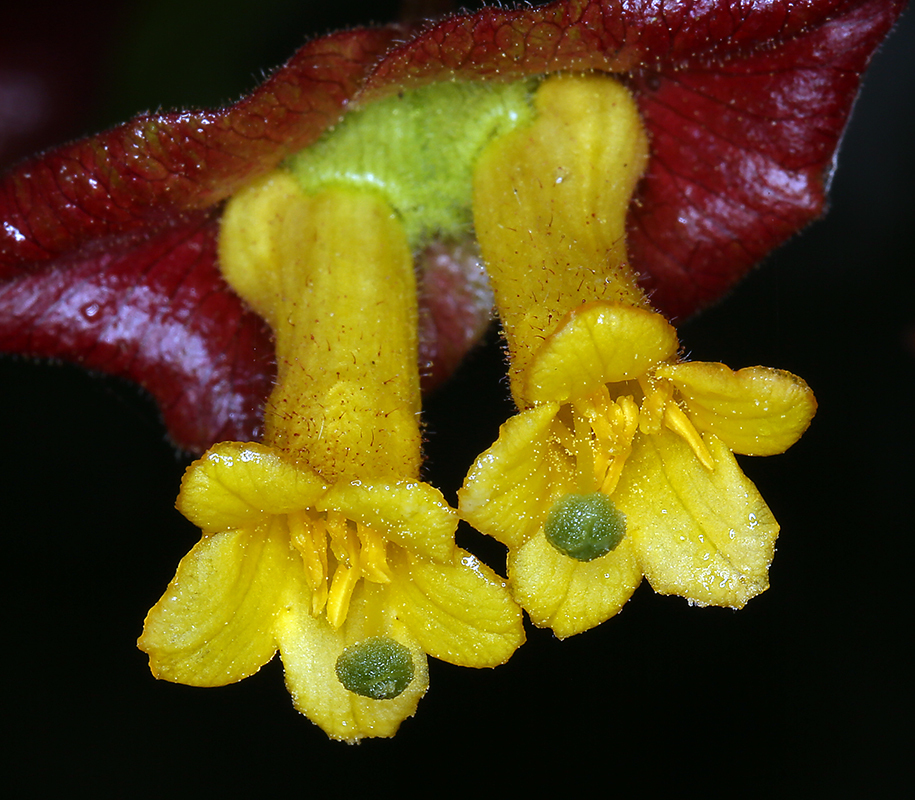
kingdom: Plantae
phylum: Tracheophyta
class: Magnoliopsida
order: Dipsacales
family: Caprifoliaceae
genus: Lonicera
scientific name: Lonicera involucrata
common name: Californian honeysuckle
